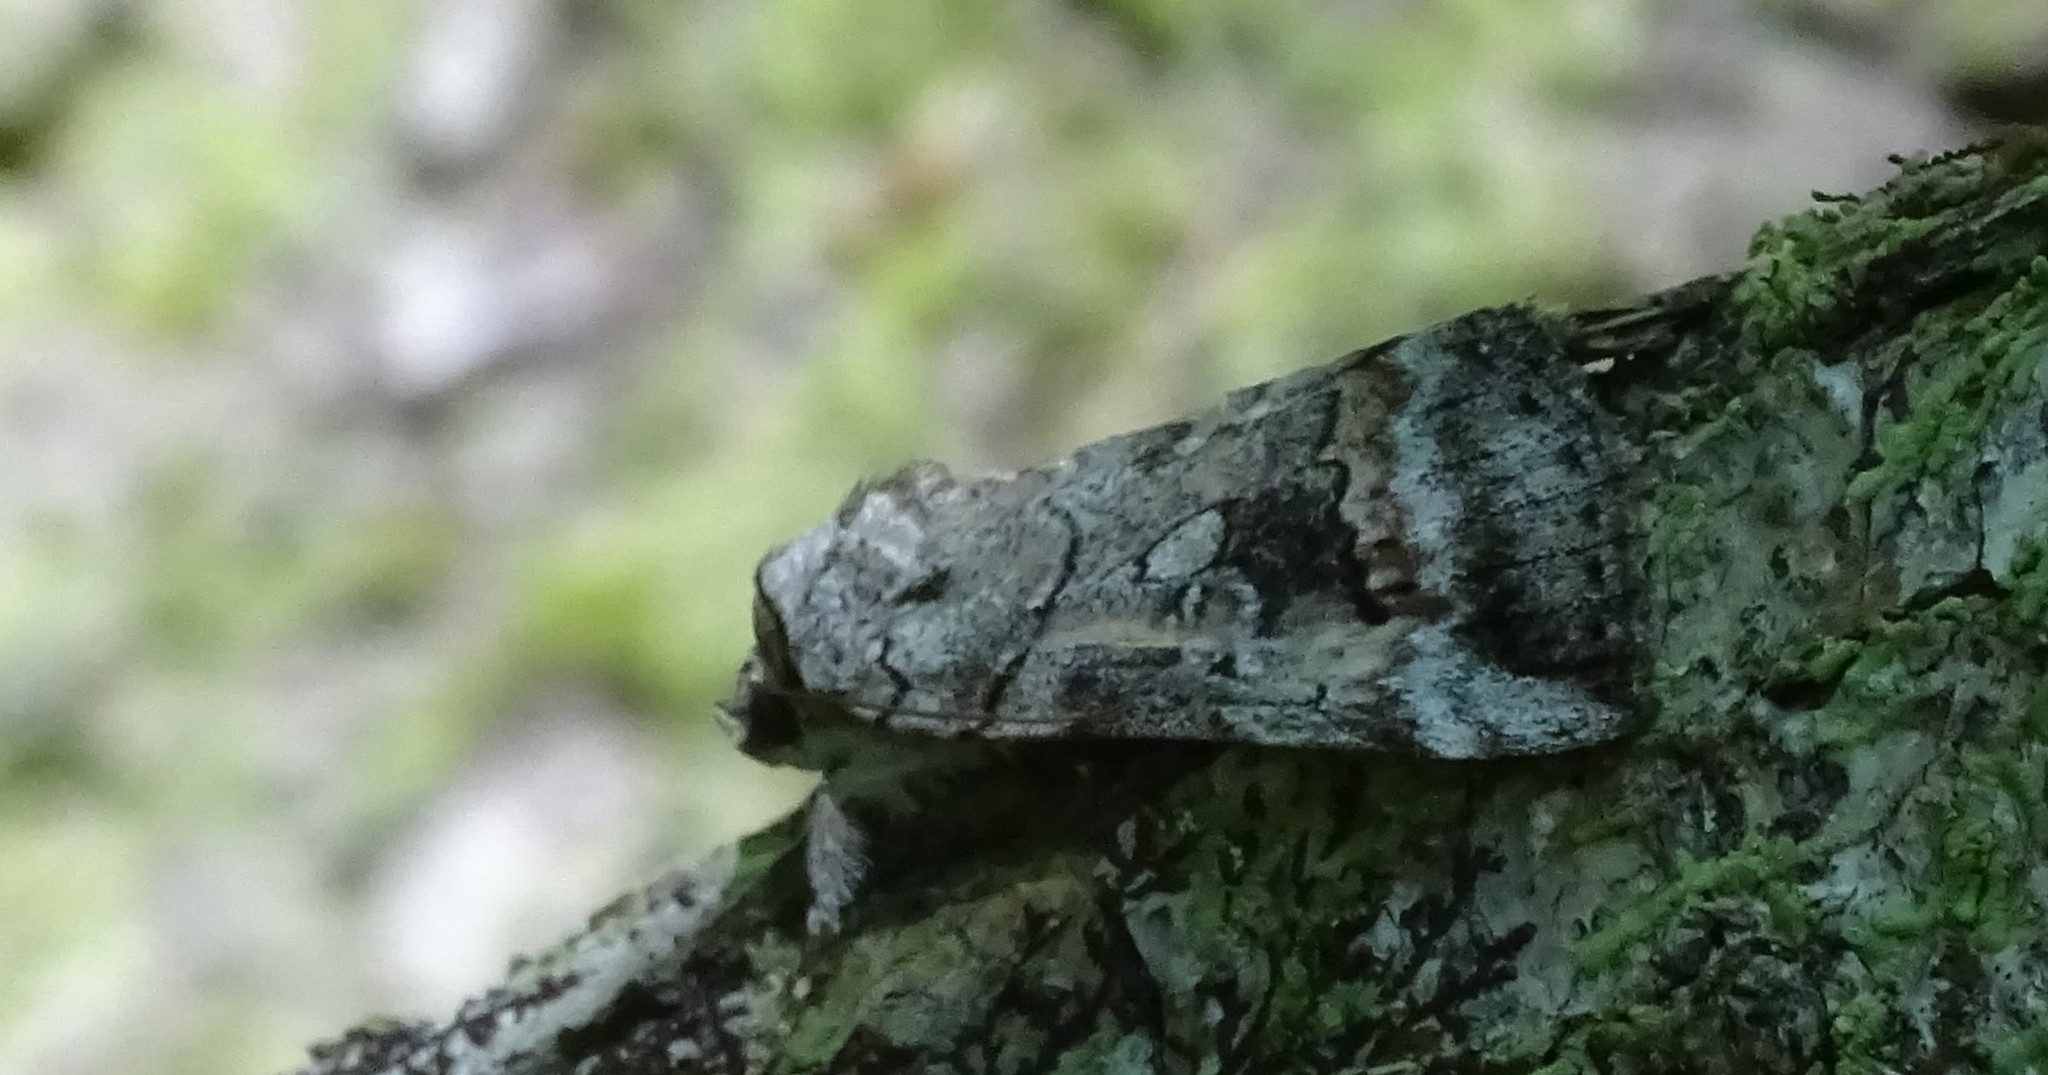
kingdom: Animalia
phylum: Arthropoda
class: Insecta
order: Lepidoptera
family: Erebidae
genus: Catocala
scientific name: Catocala similis
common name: Similar underwing
